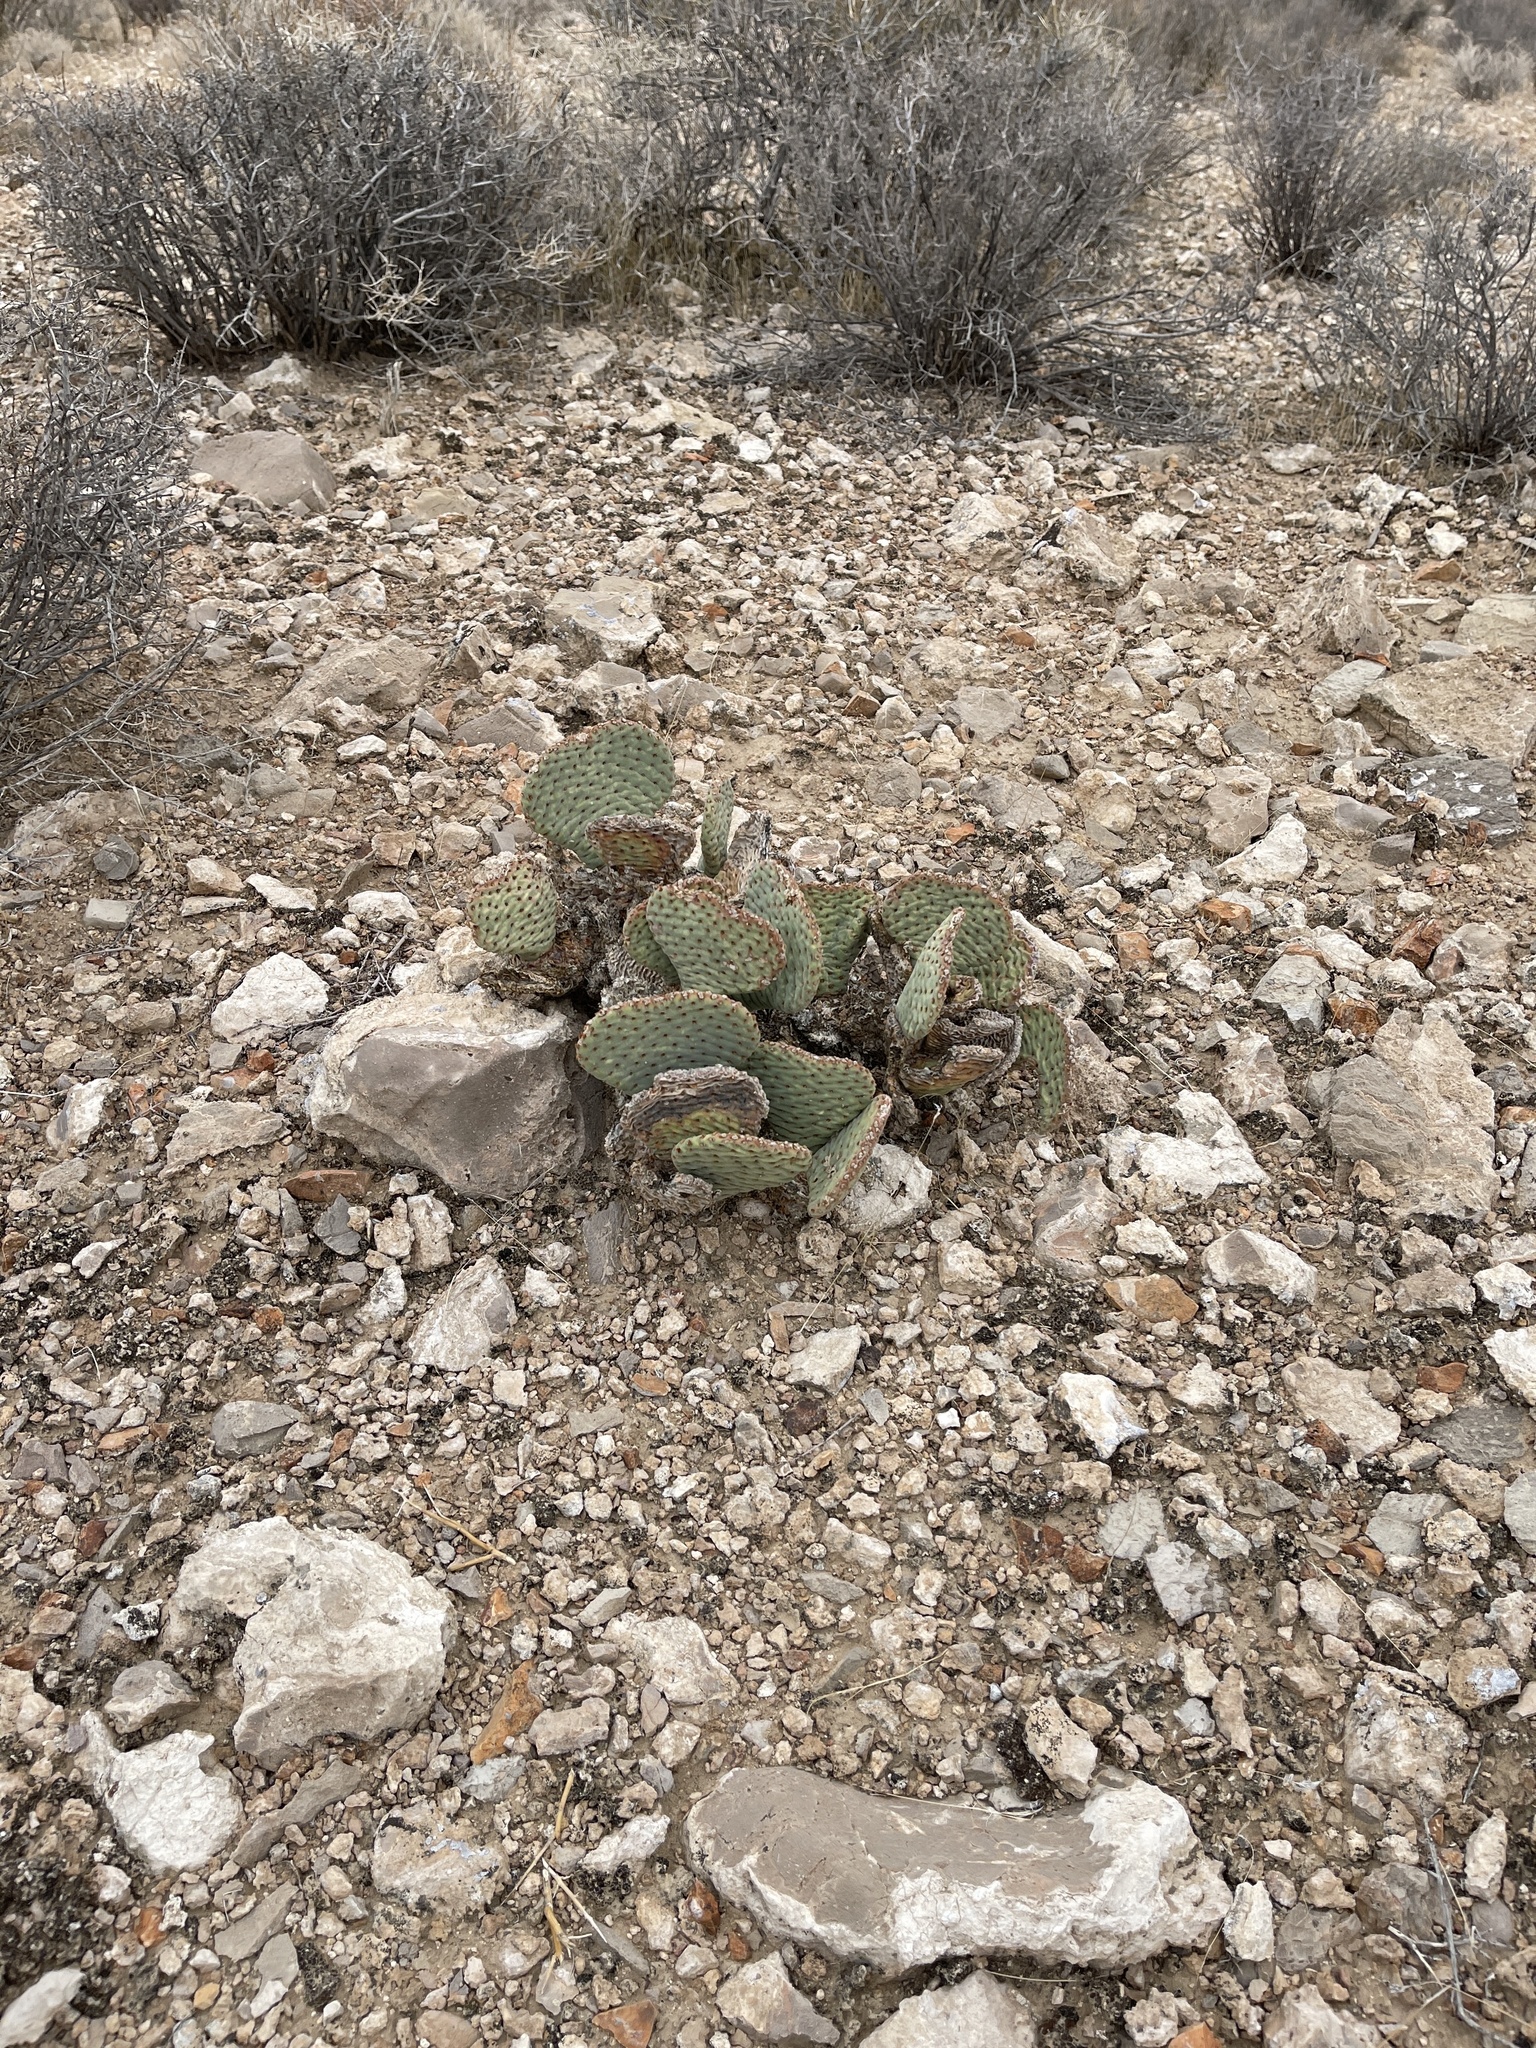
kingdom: Plantae
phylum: Tracheophyta
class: Magnoliopsida
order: Caryophyllales
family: Cactaceae
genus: Opuntia
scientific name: Opuntia basilaris
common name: Beavertail prickly-pear
